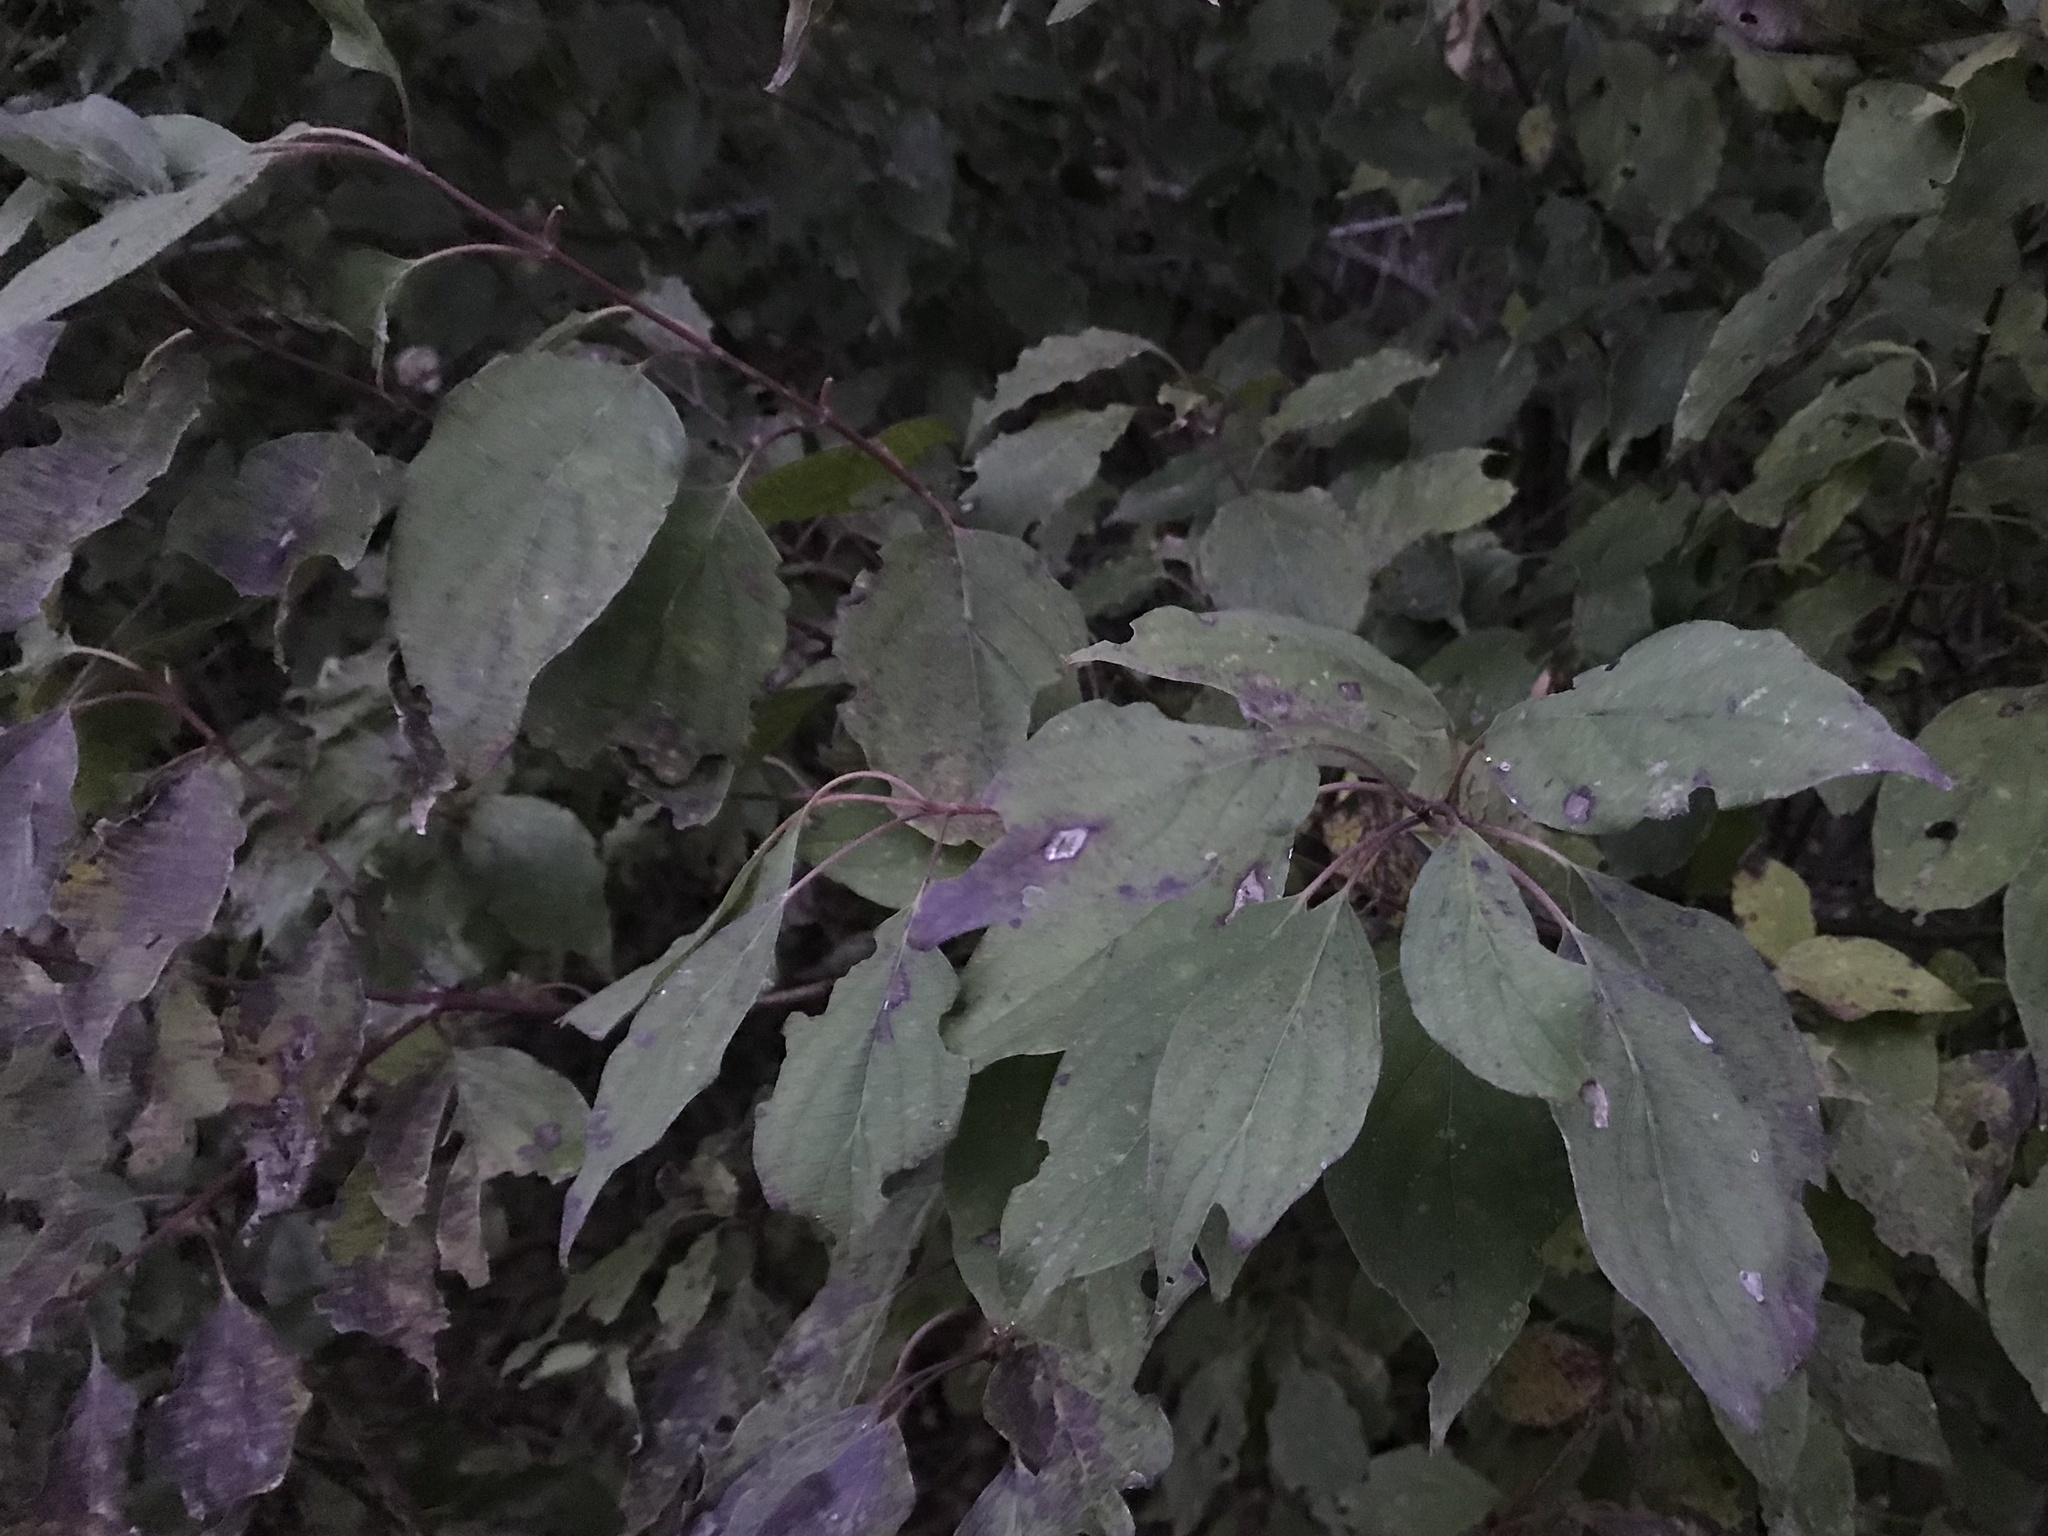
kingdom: Plantae
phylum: Tracheophyta
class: Magnoliopsida
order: Cornales
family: Cornaceae
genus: Cornus
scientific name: Cornus drummondii
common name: Rough-leaf dogwood
